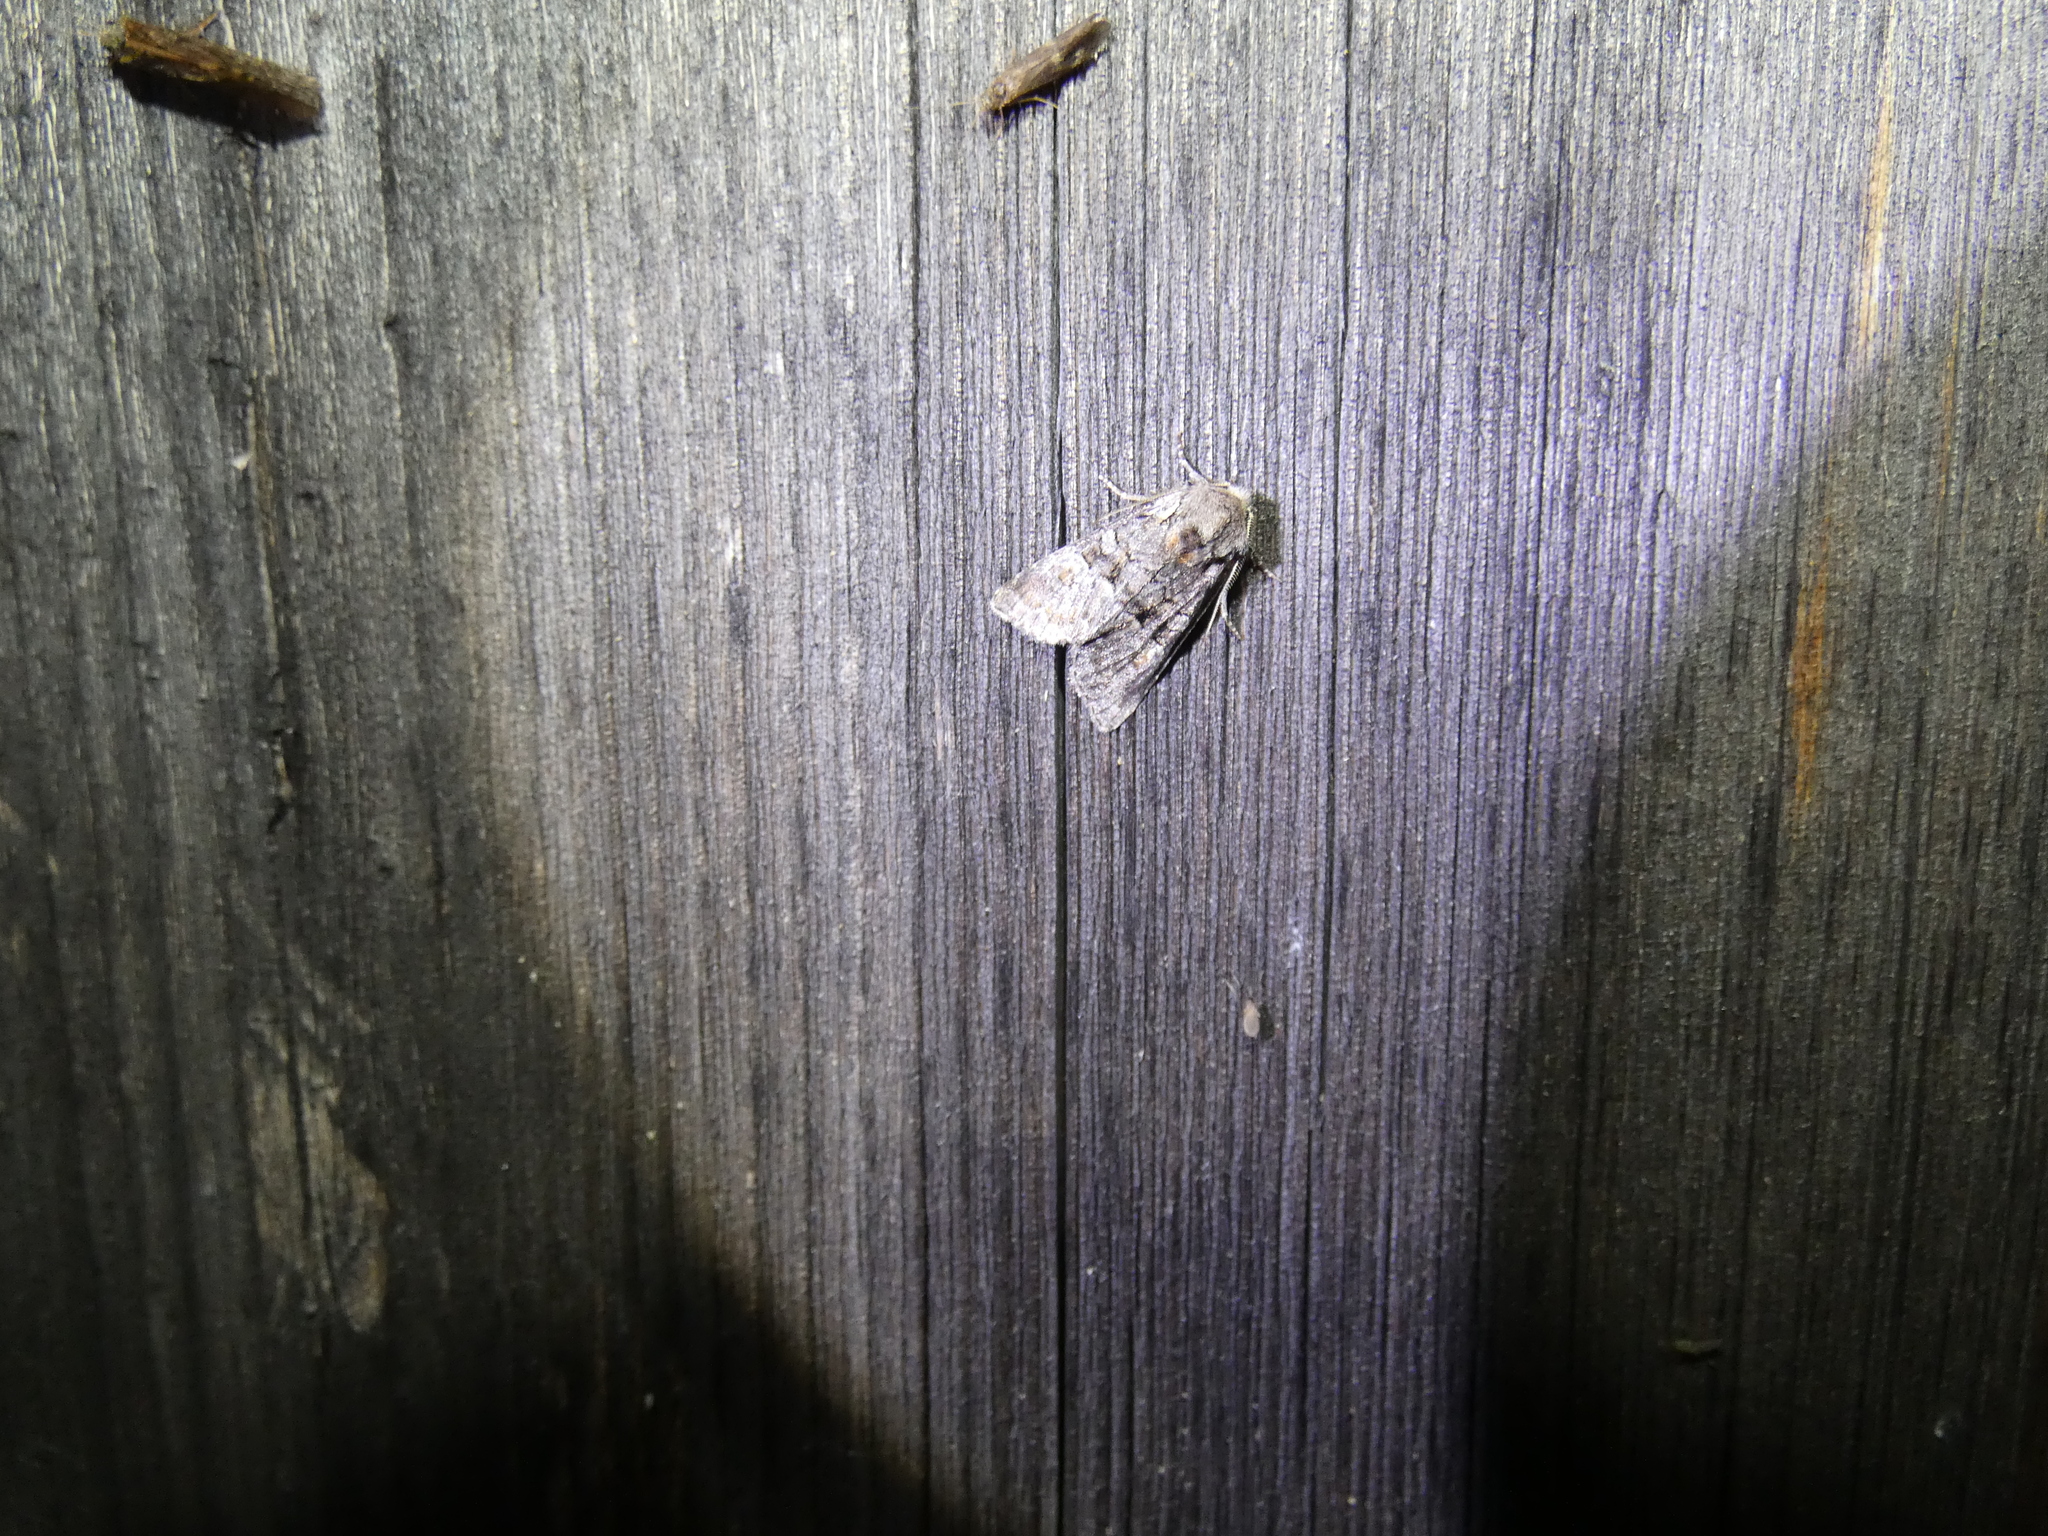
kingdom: Animalia
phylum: Arthropoda
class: Insecta
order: Lepidoptera
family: Noctuidae
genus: Brachylomia
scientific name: Brachylomia viminalis
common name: Minor shoulder-knot
